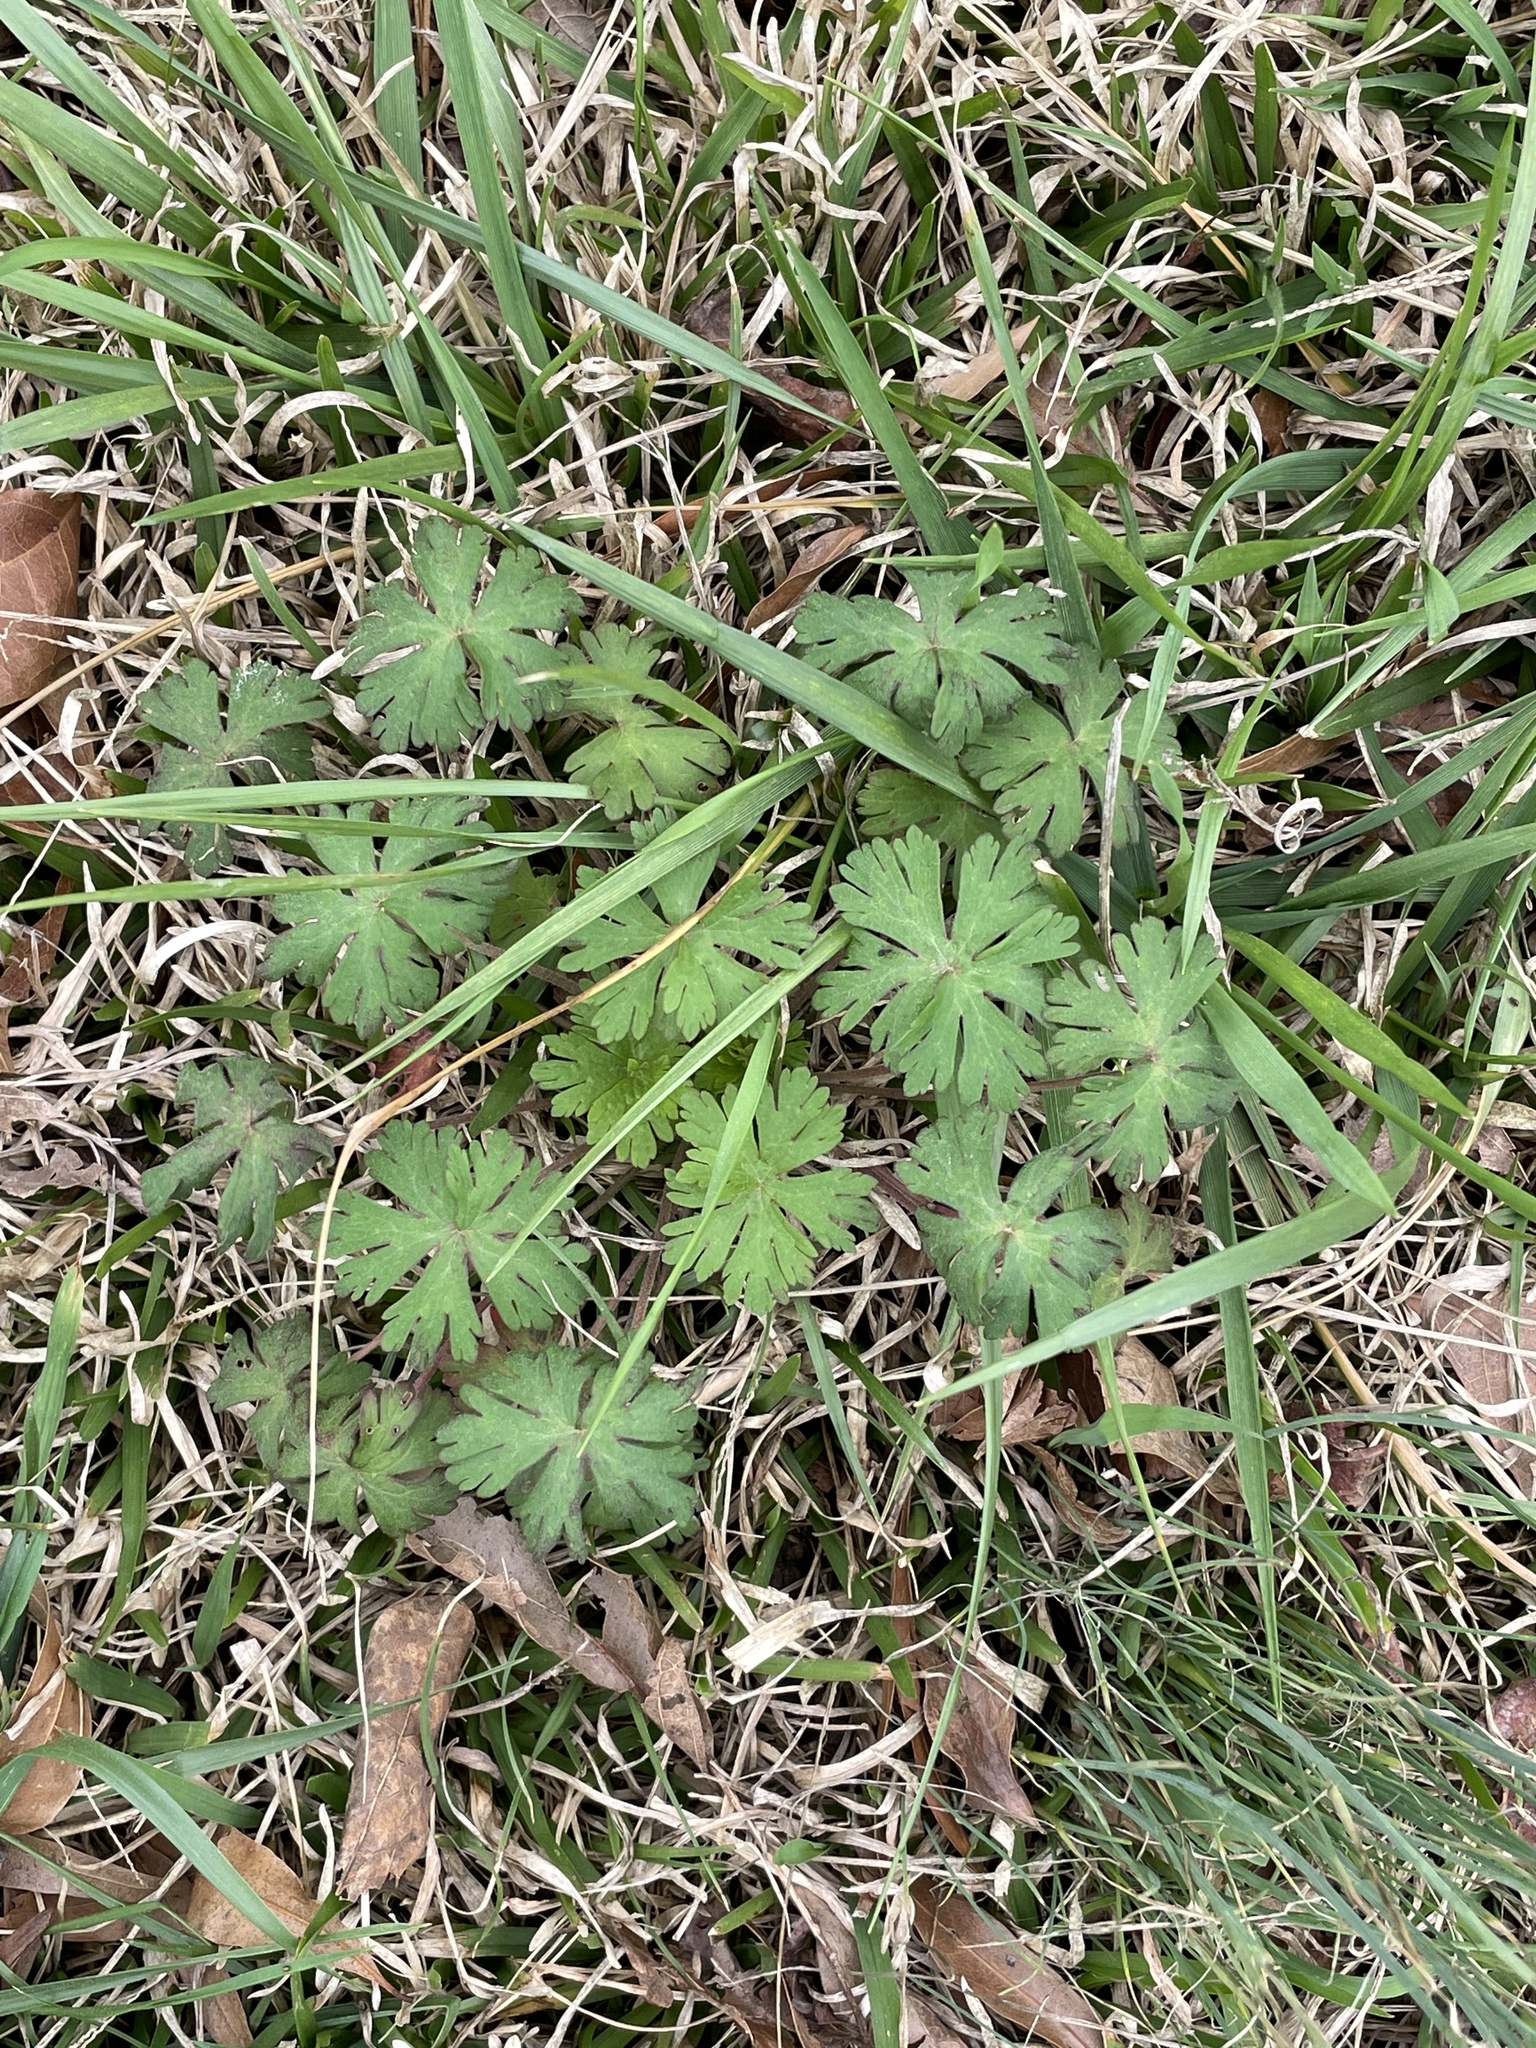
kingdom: Plantae
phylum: Tracheophyta
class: Magnoliopsida
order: Geraniales
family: Geraniaceae
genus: Geranium
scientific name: Geranium carolinianum
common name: Carolina crane's-bill
